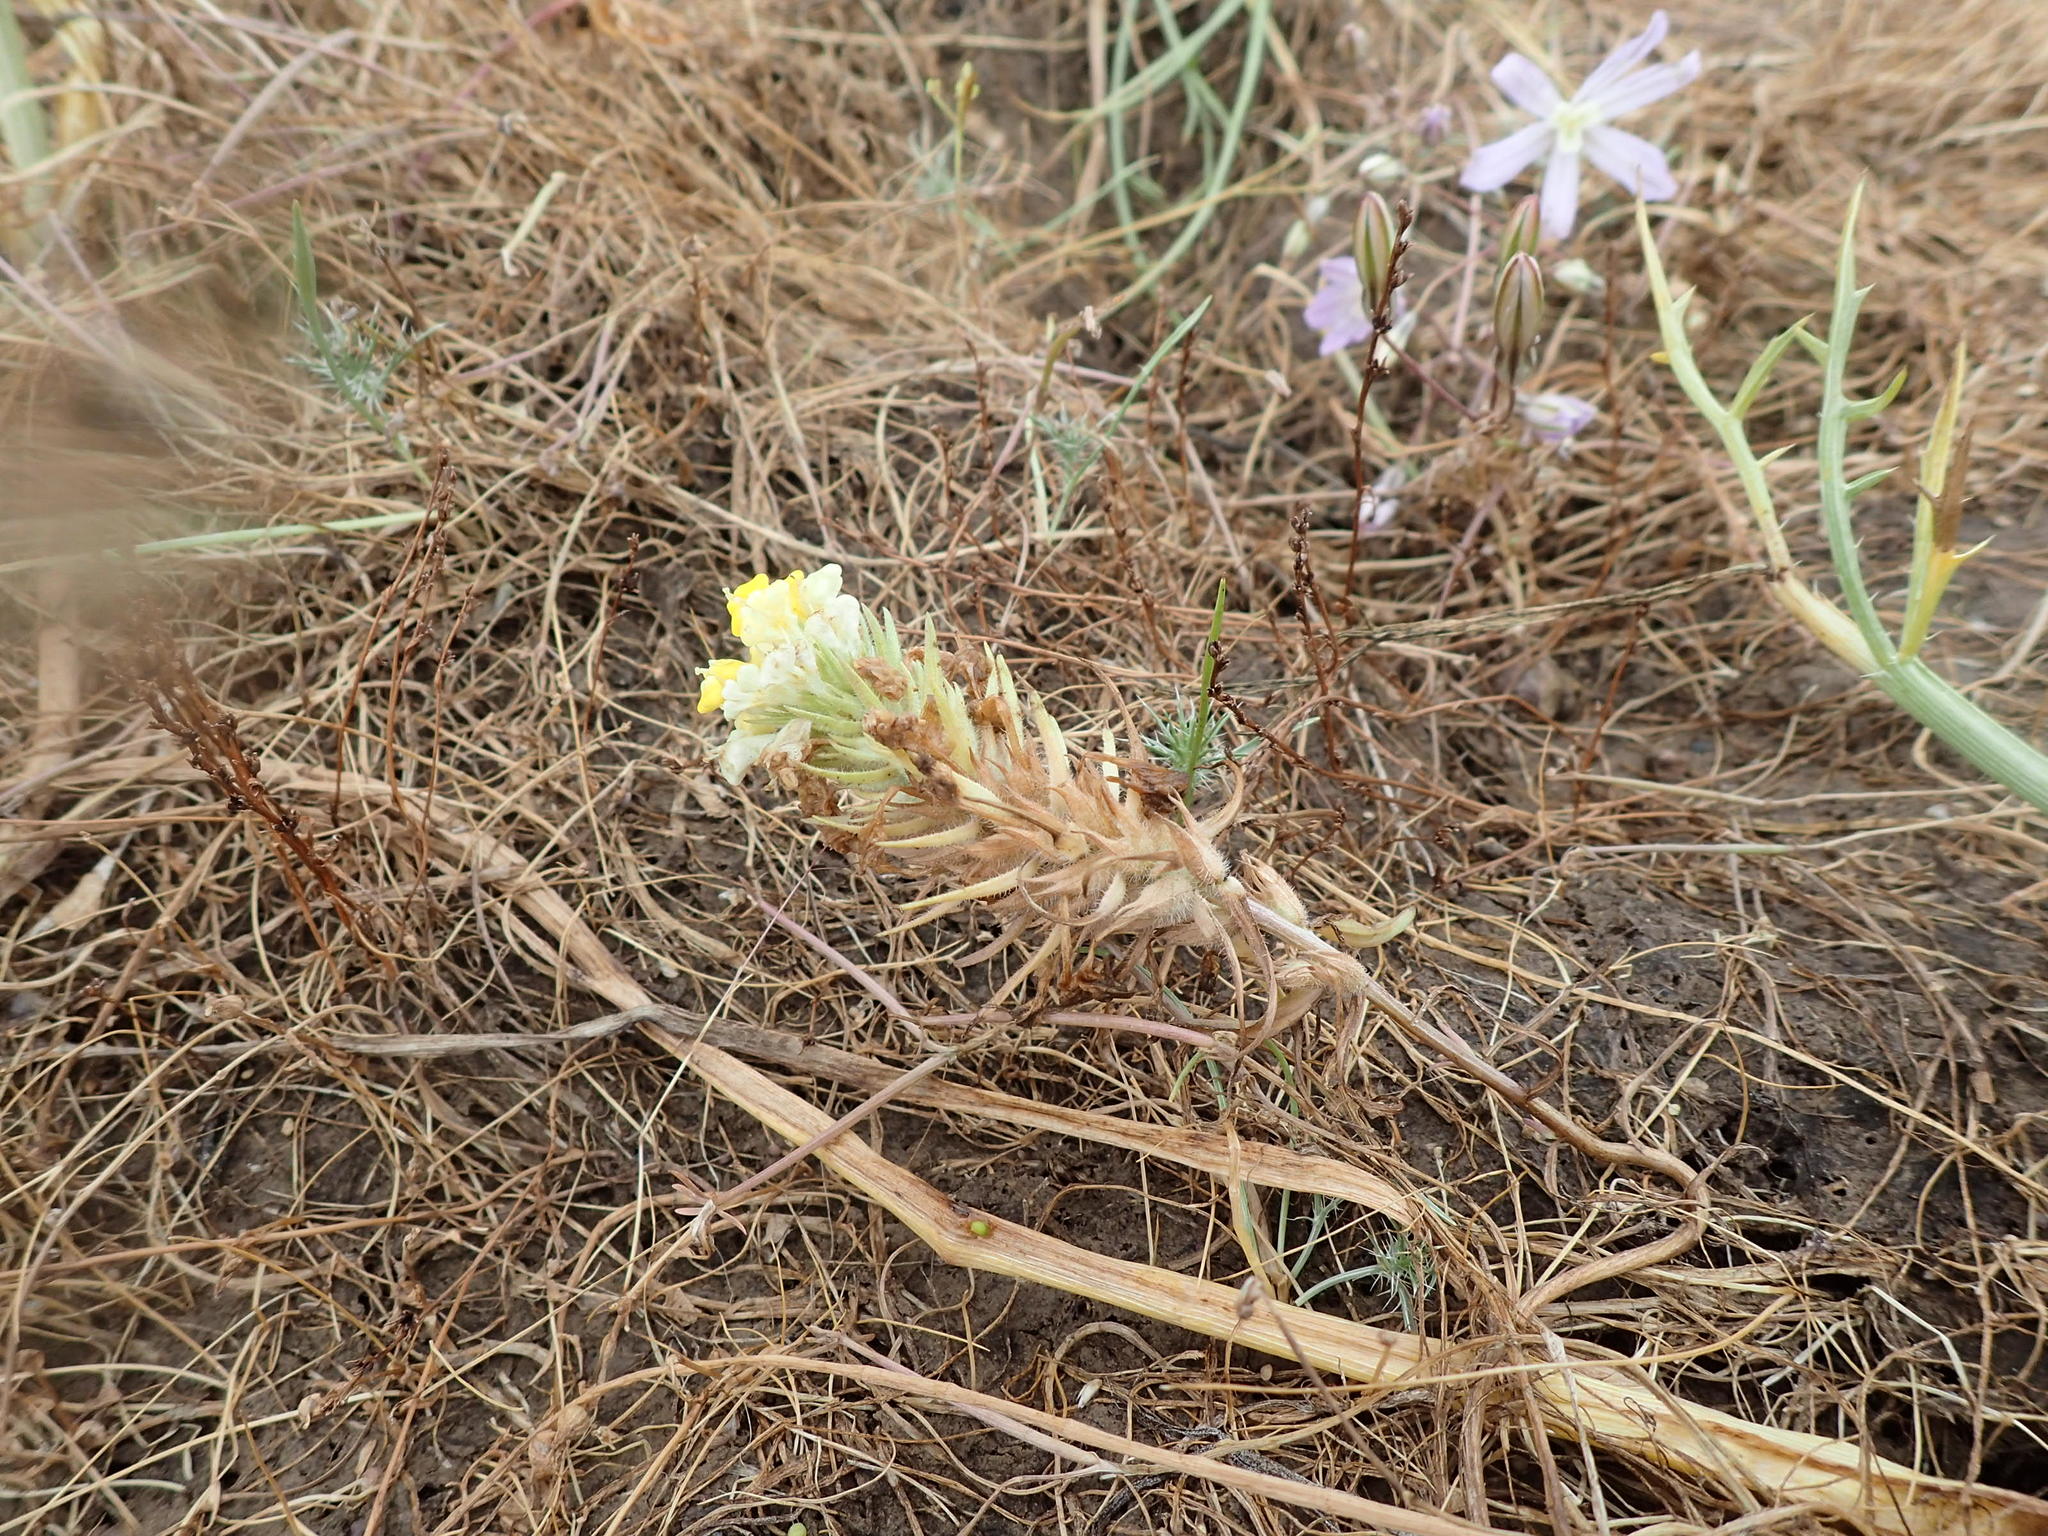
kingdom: Plantae
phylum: Tracheophyta
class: Magnoliopsida
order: Lamiales
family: Orobanchaceae
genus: Castilleja
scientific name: Castilleja campestris
